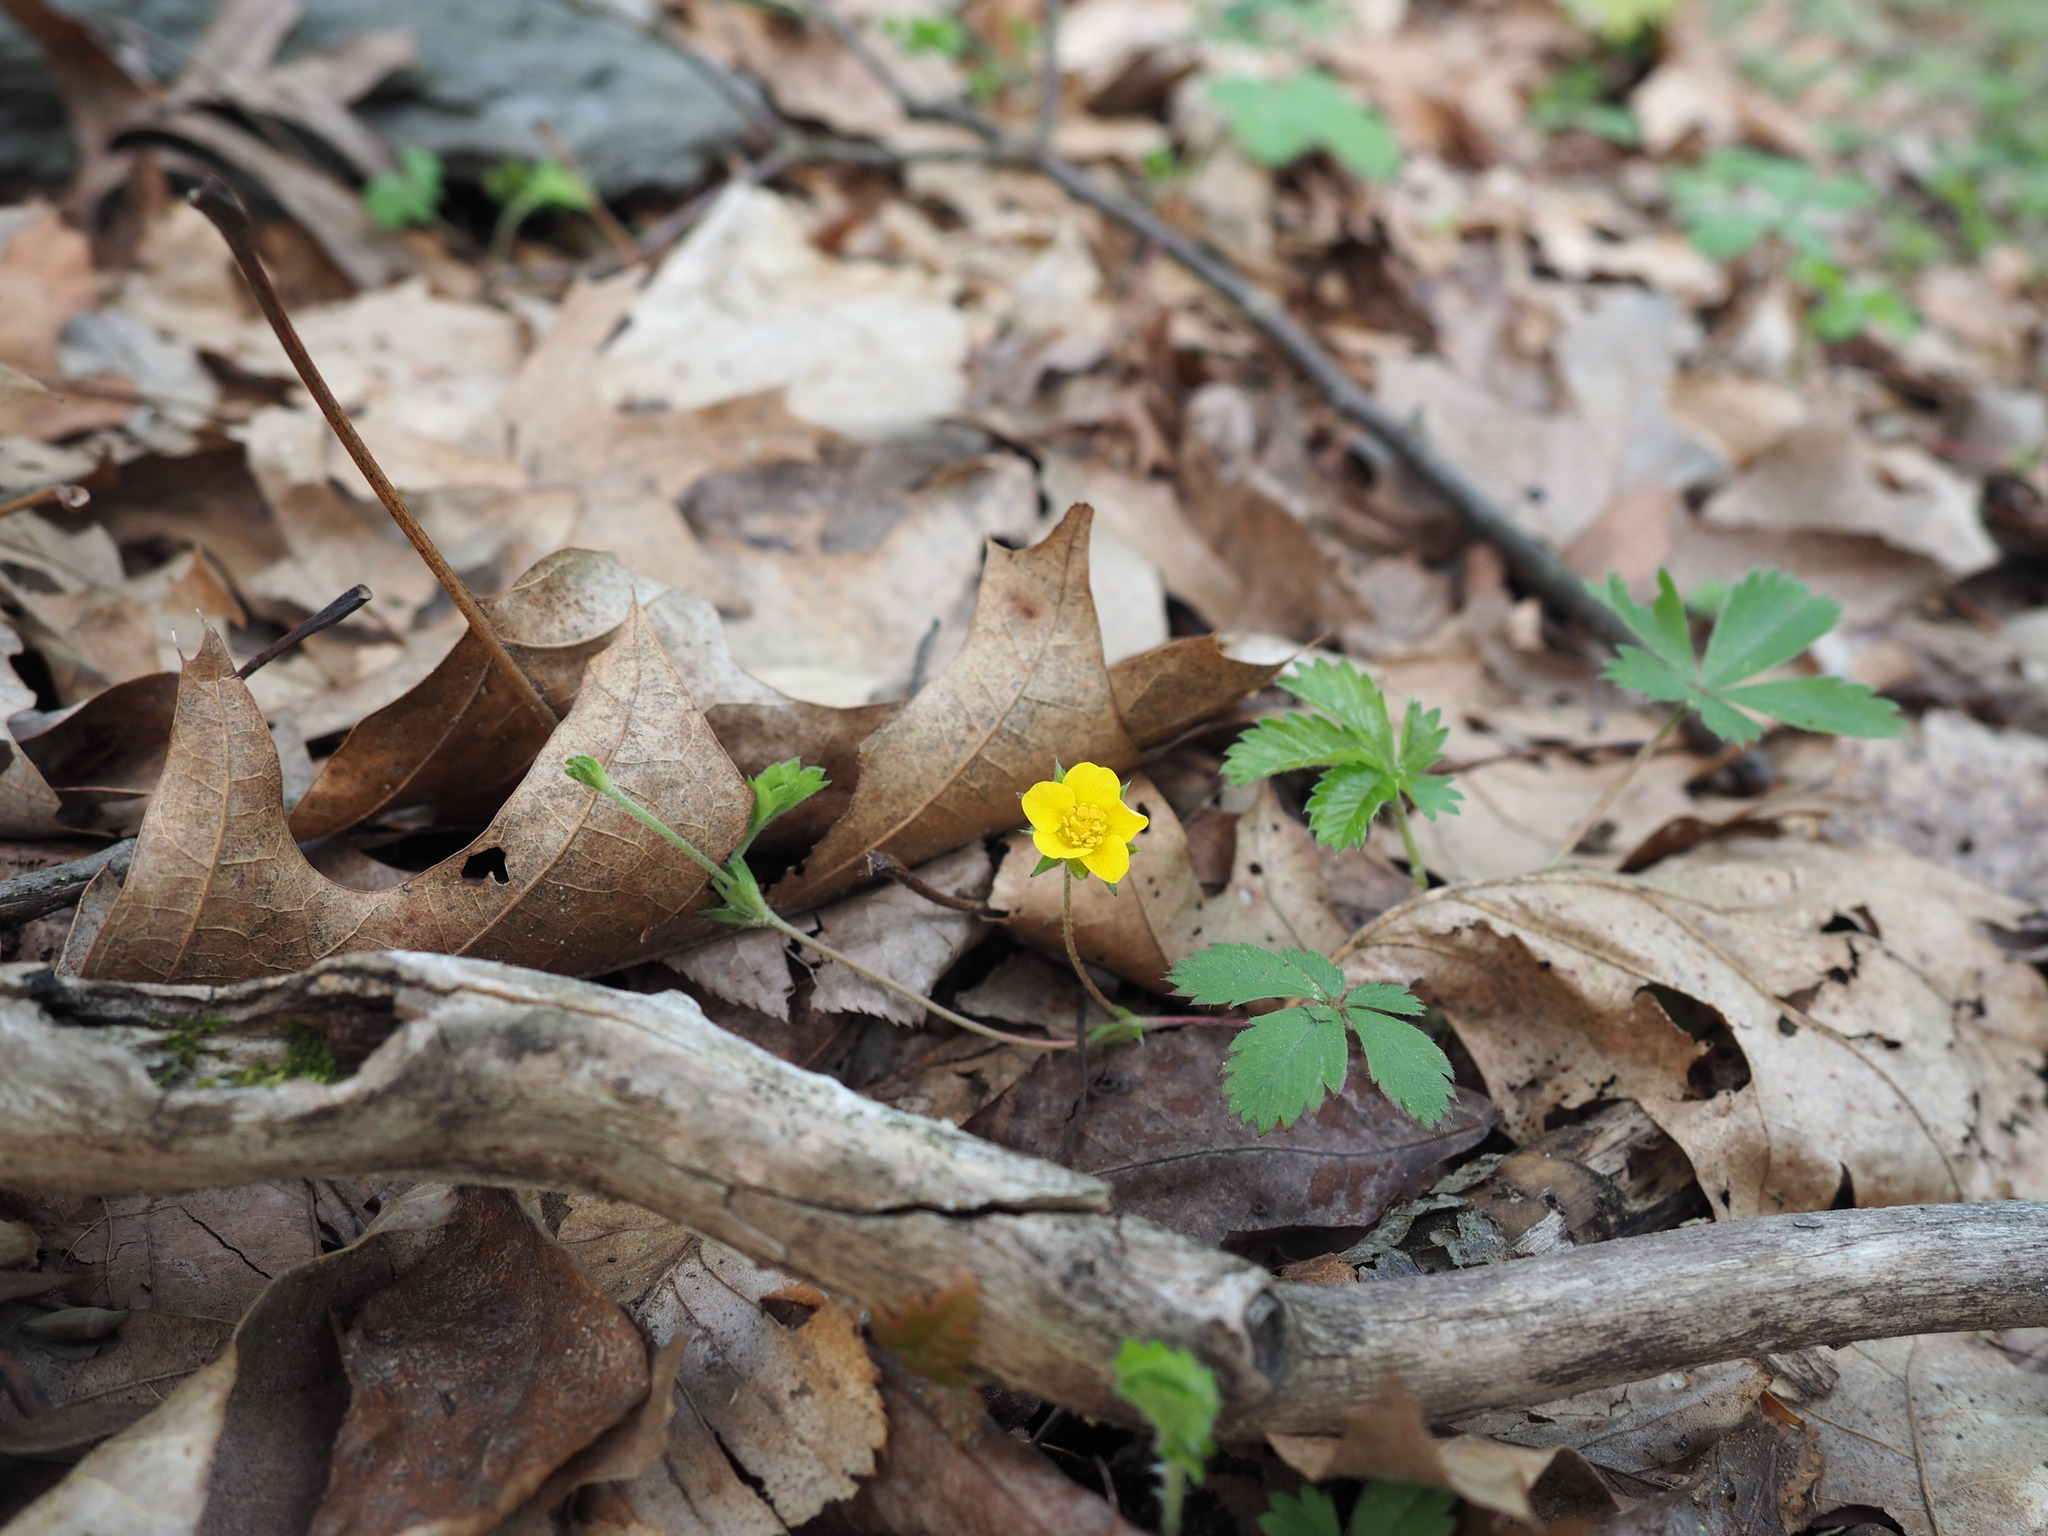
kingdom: Plantae
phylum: Tracheophyta
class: Magnoliopsida
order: Rosales
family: Rosaceae
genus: Potentilla
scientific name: Potentilla canadensis
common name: Canada cinquefoil
